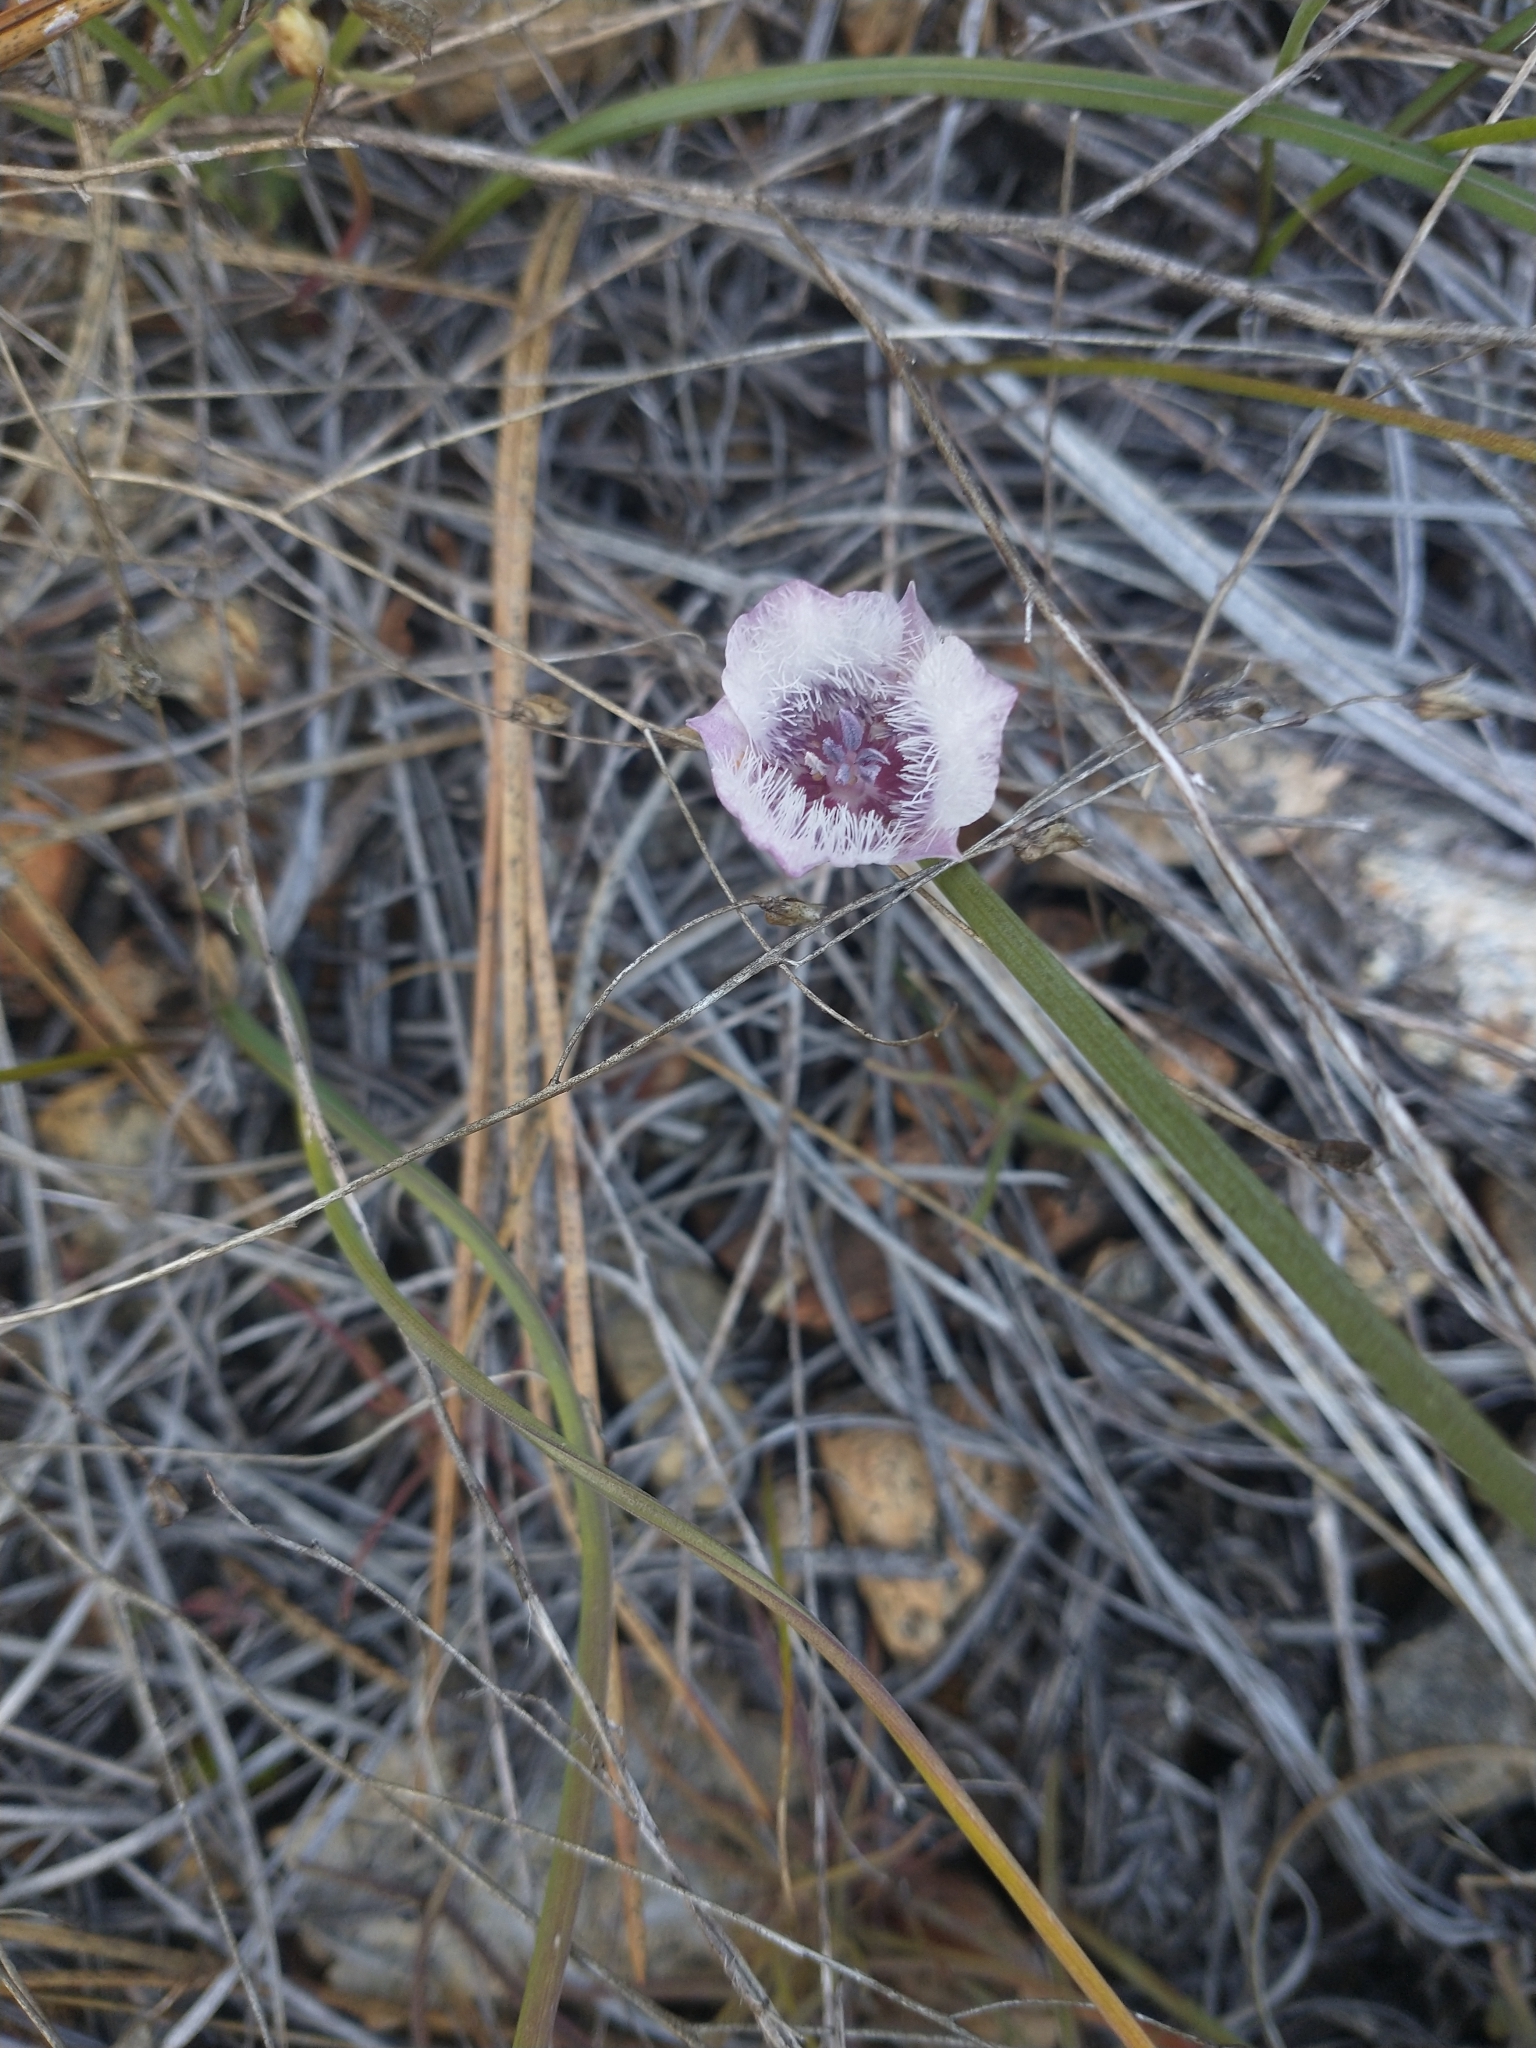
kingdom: Plantae
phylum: Tracheophyta
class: Liliopsida
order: Liliales
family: Liliaceae
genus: Calochortus
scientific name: Calochortus tolmiei
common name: Pussy-ears
